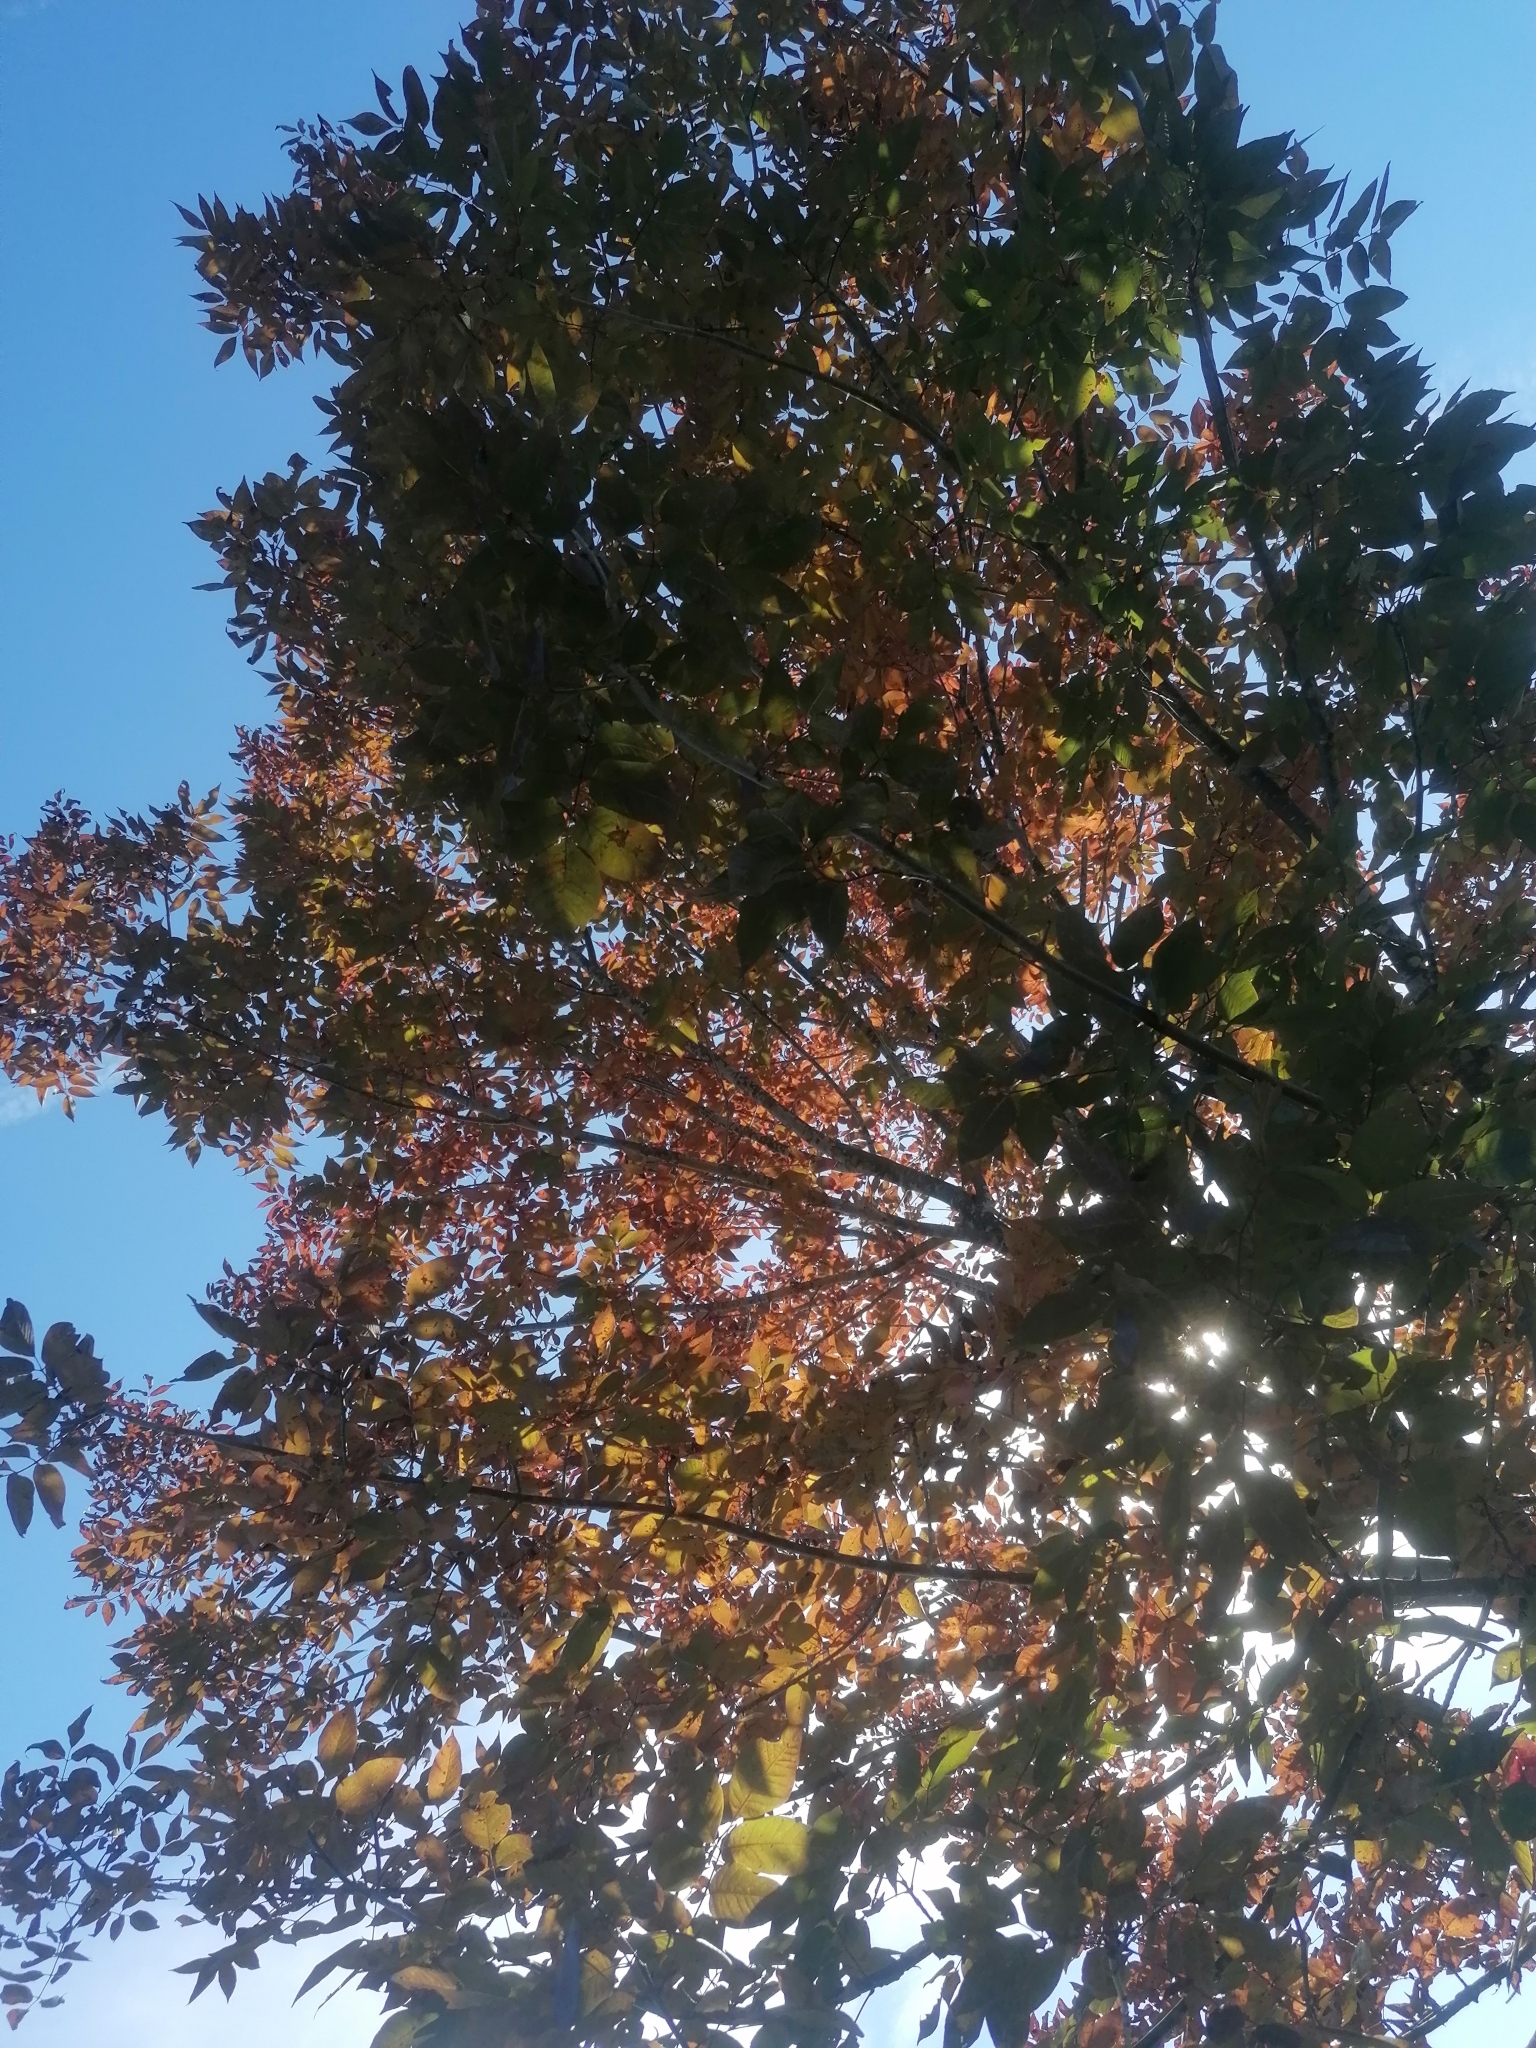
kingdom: Plantae
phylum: Tracheophyta
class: Magnoliopsida
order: Lamiales
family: Oleaceae
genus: Fraxinus
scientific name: Fraxinus americana
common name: White ash
